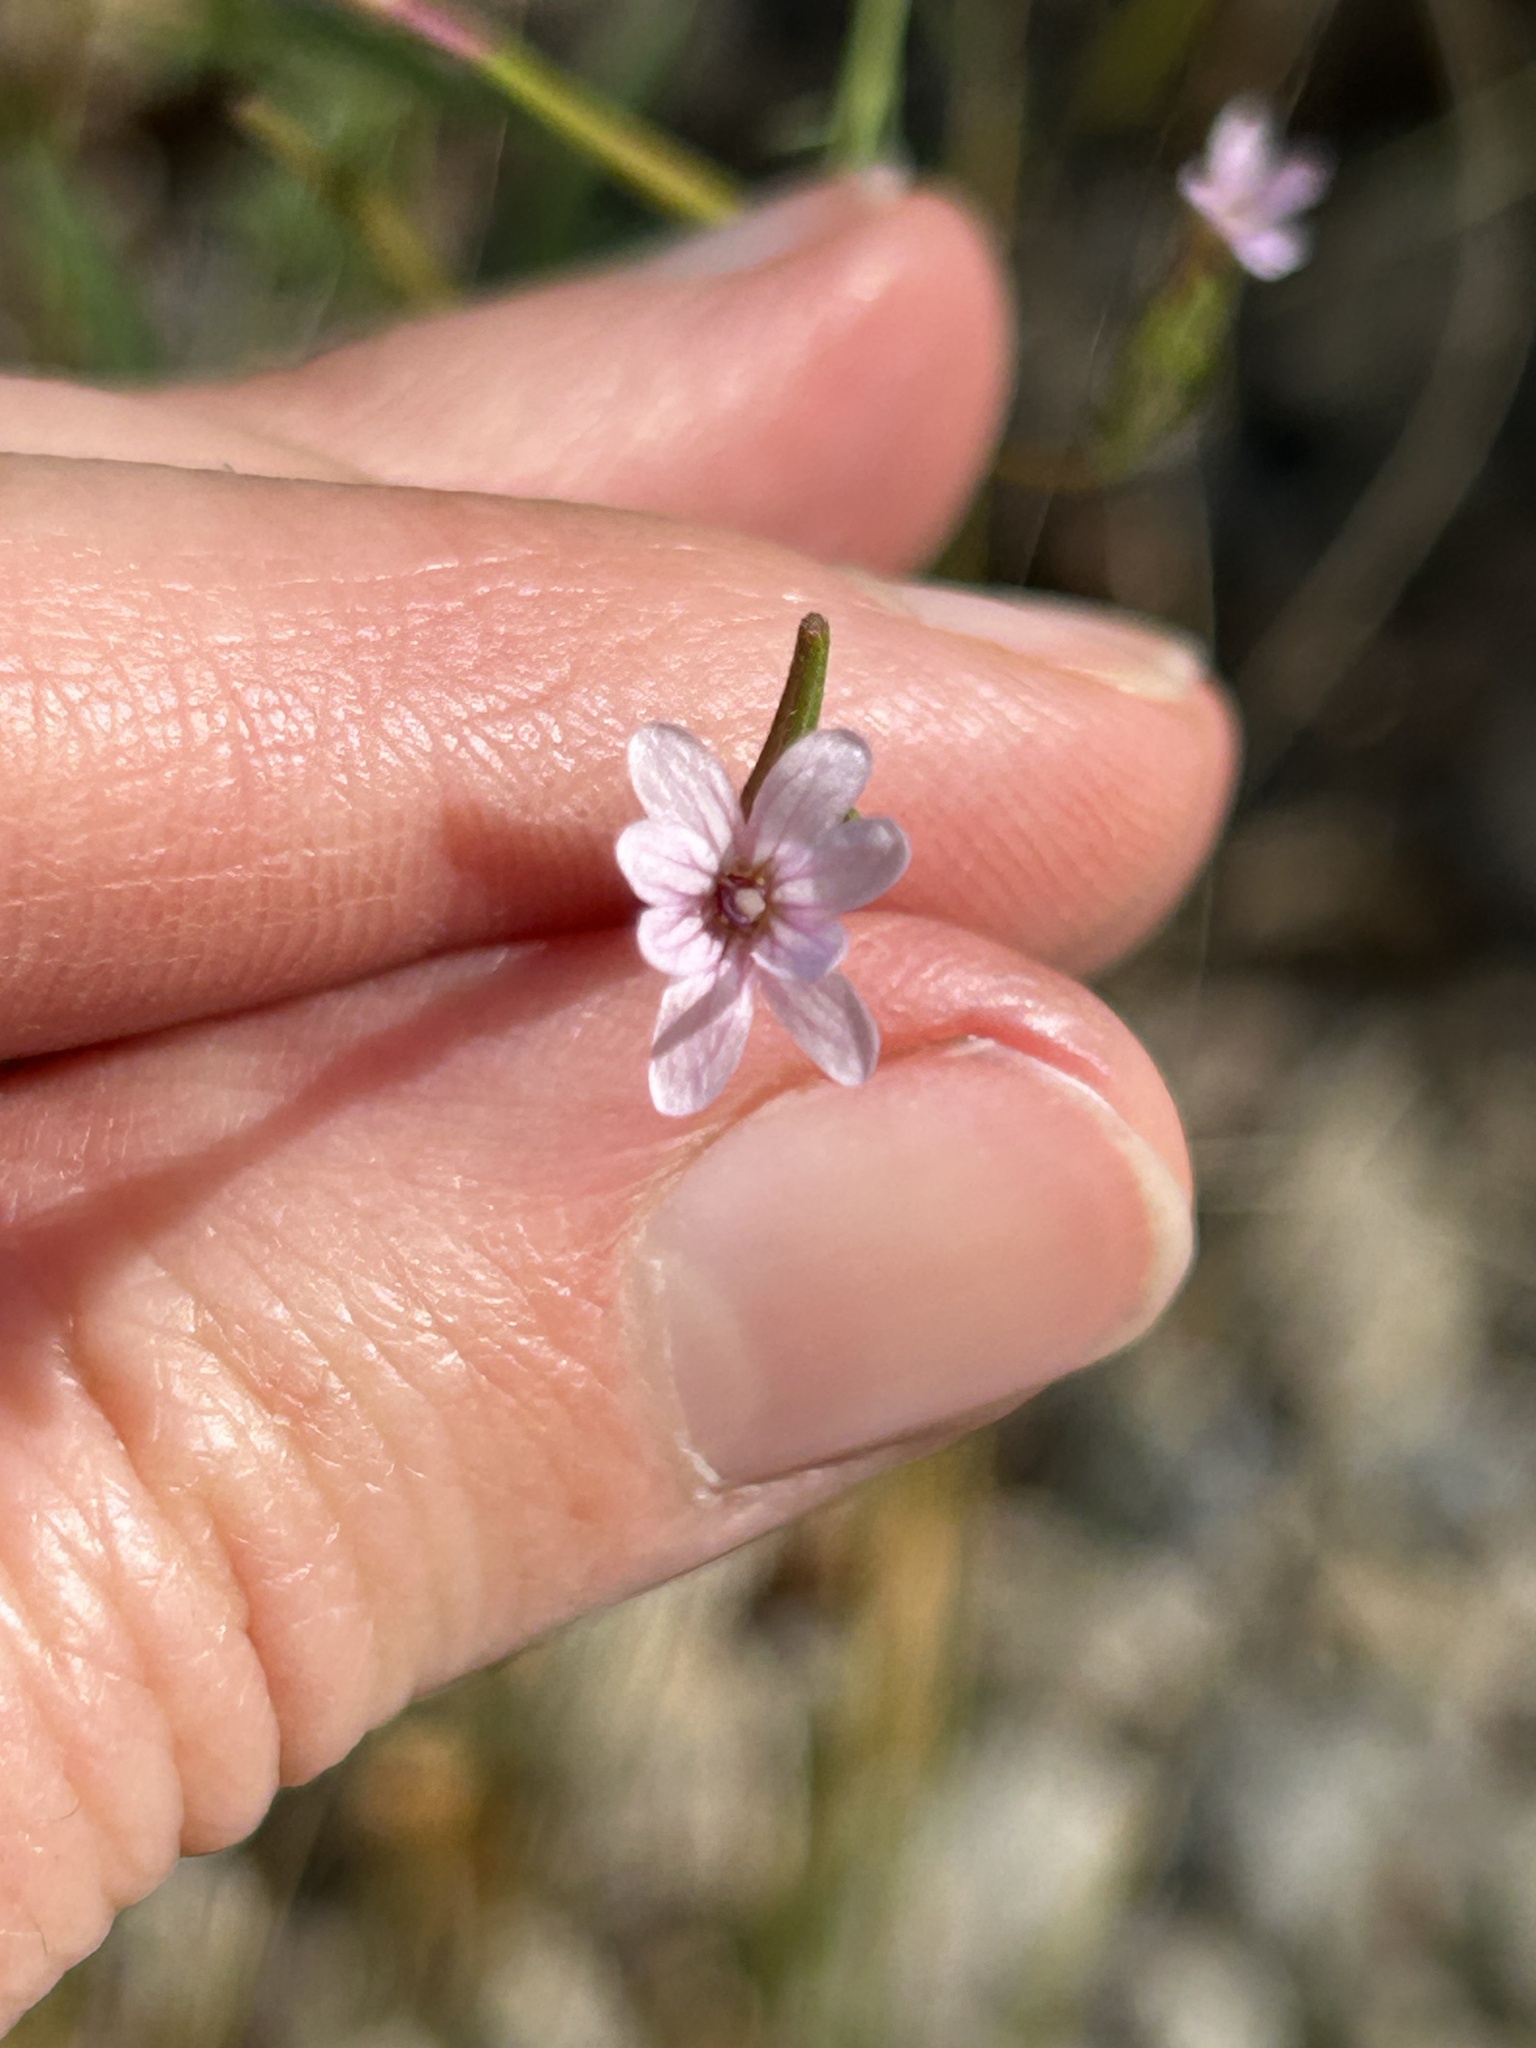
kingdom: Plantae
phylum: Tracheophyta
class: Magnoliopsida
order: Myrtales
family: Onagraceae
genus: Epilobium
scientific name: Epilobium brachycarpum
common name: Annual willowherb
